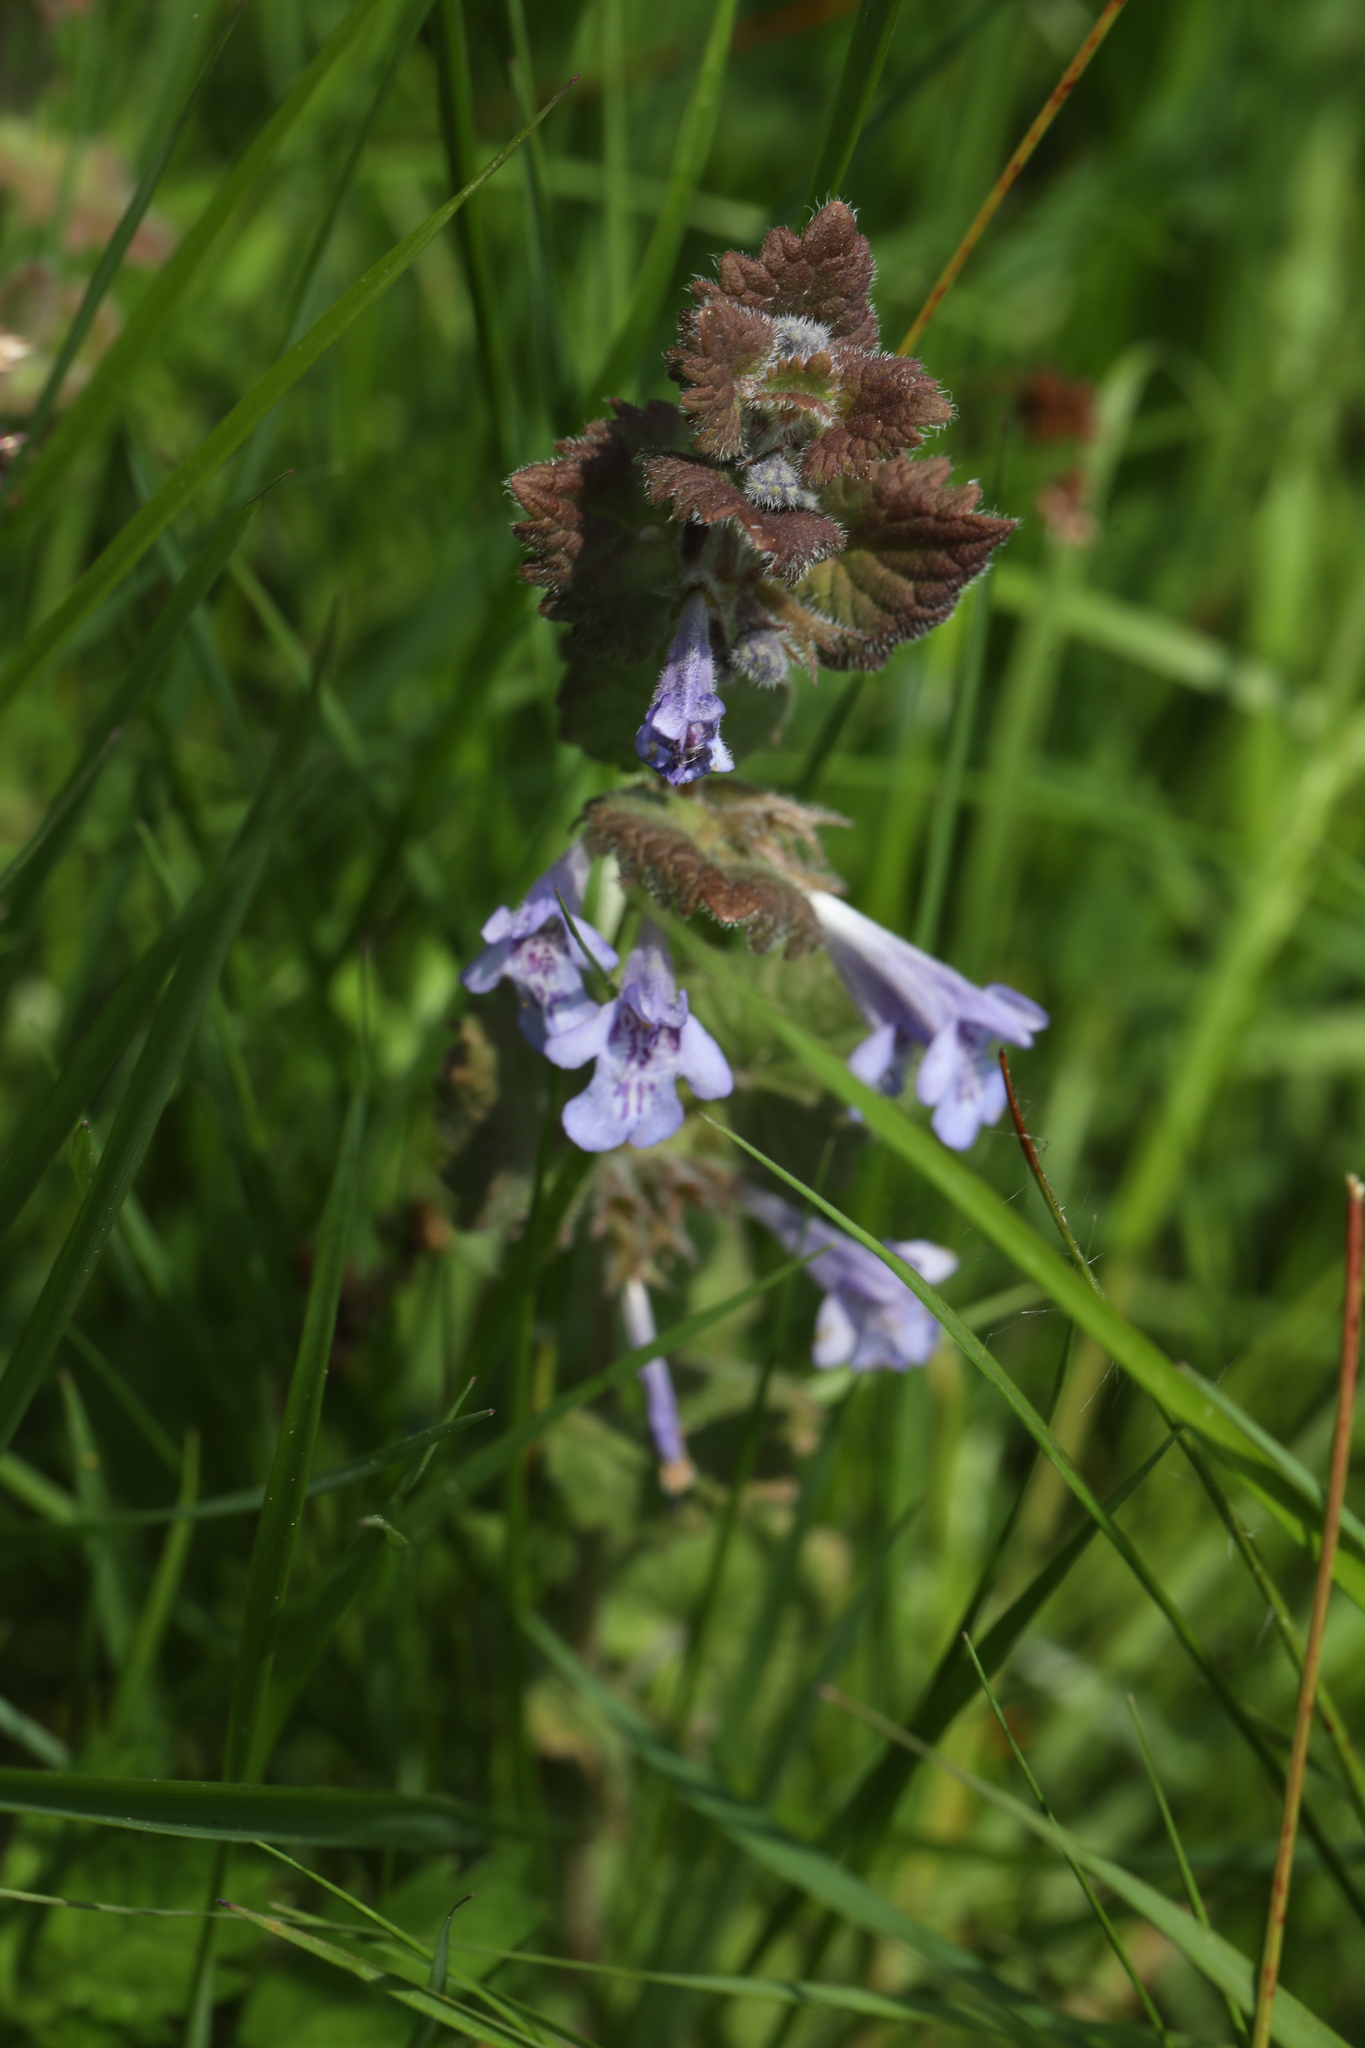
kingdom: Plantae
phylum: Tracheophyta
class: Magnoliopsida
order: Lamiales
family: Lamiaceae
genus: Glechoma
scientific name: Glechoma hederacea
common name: Ground ivy
